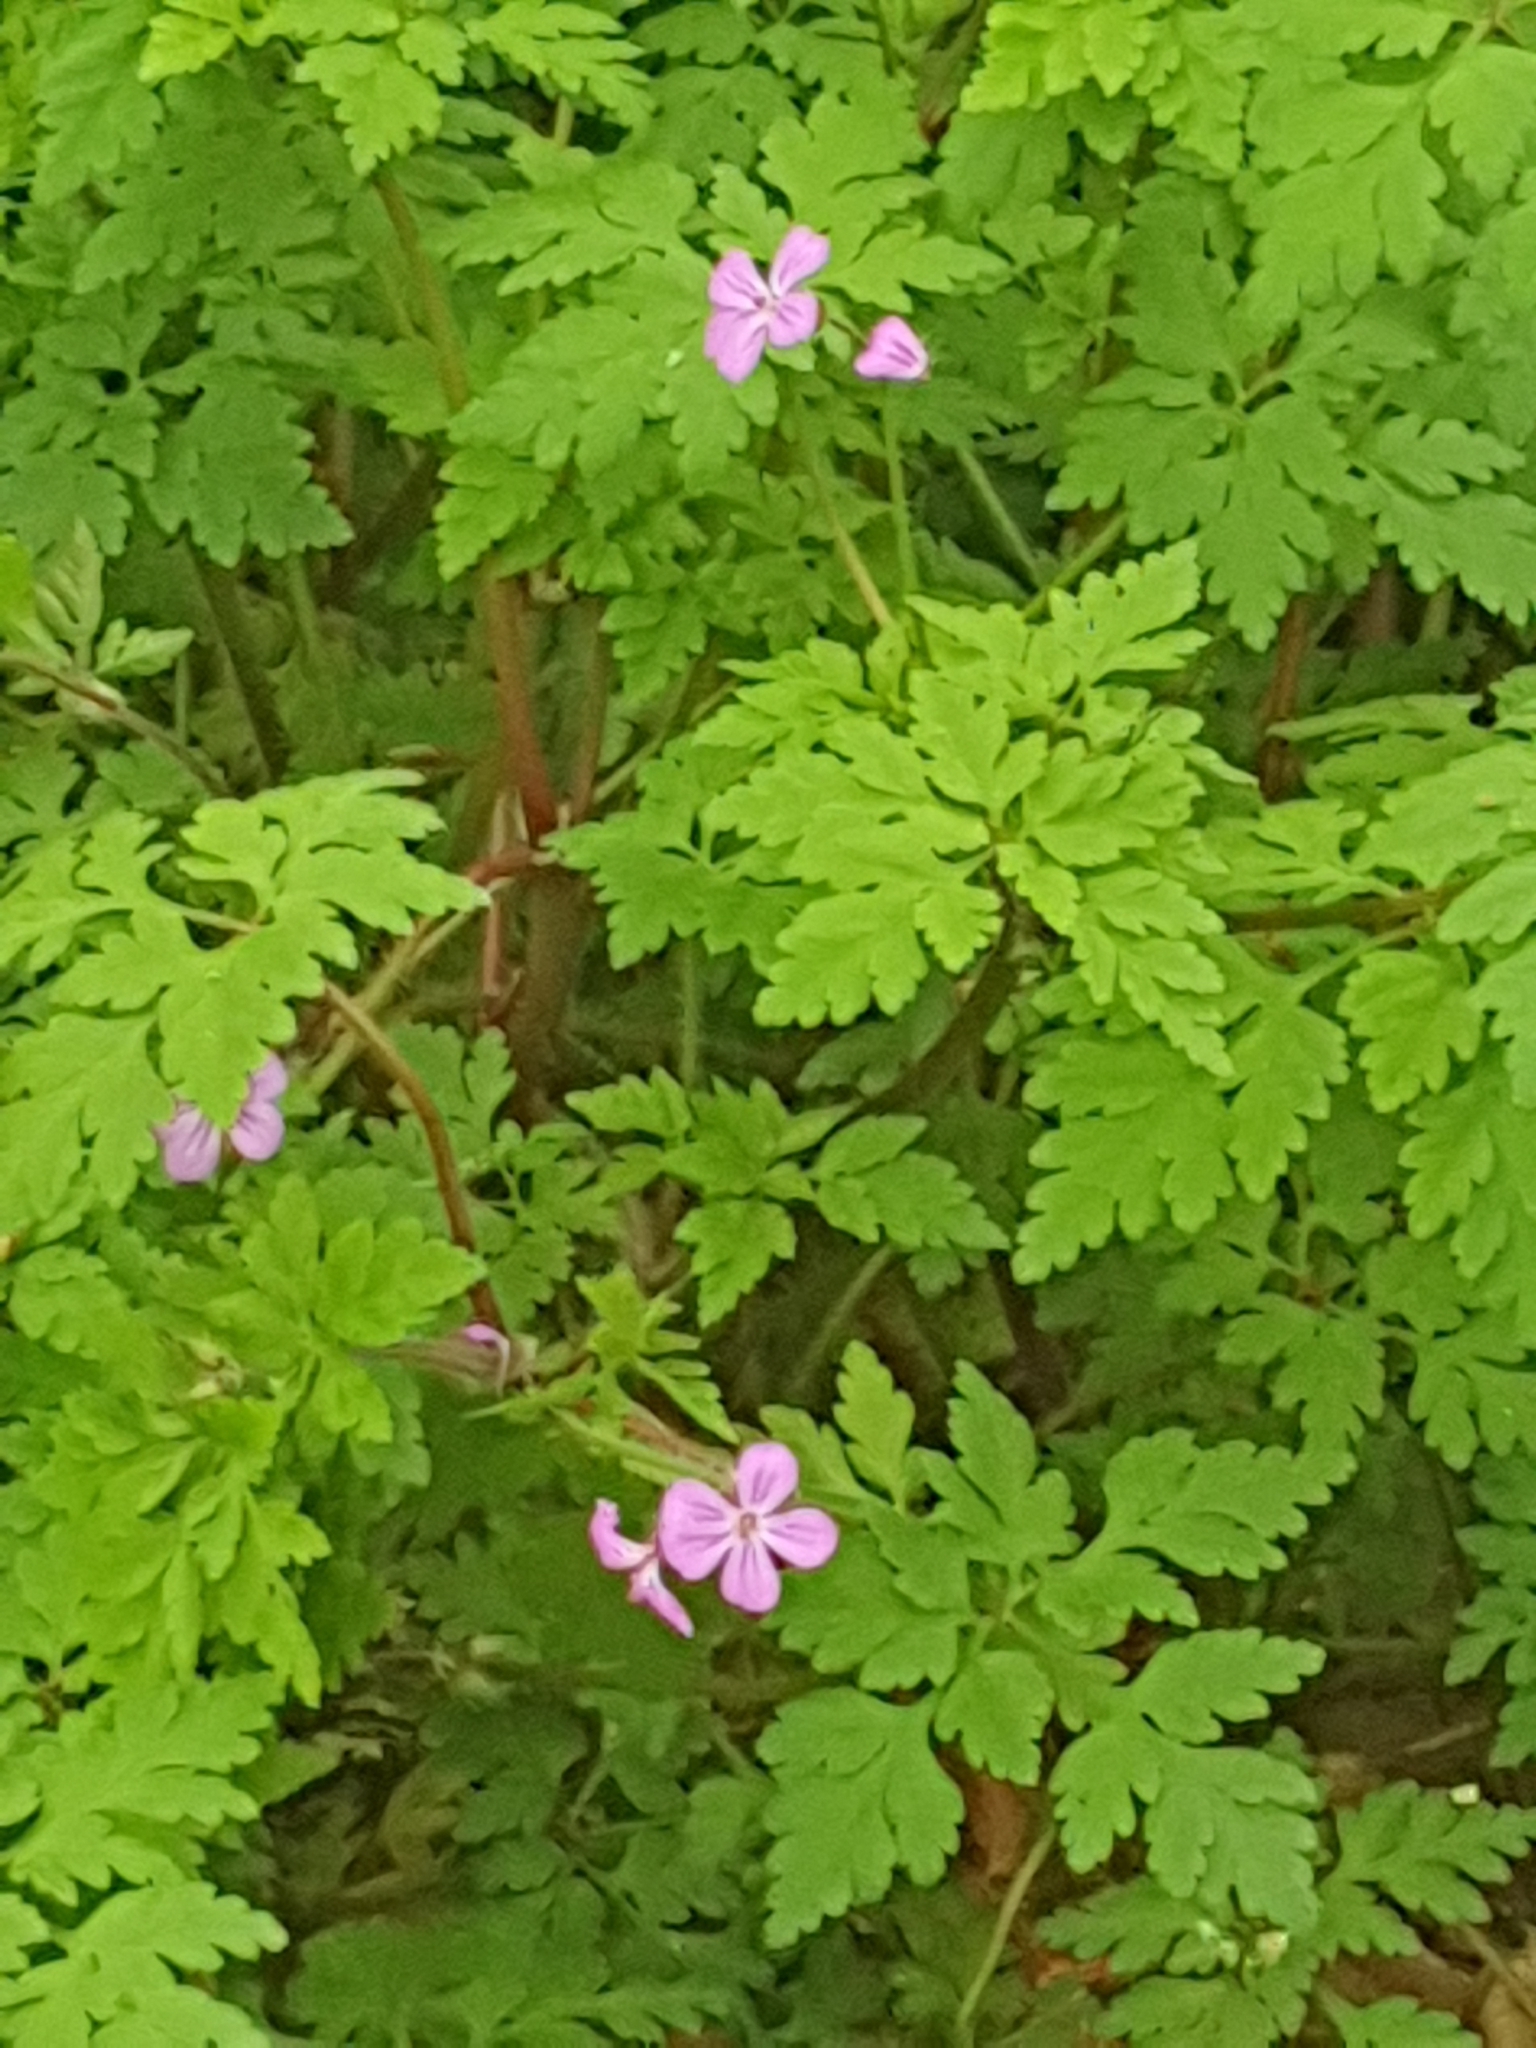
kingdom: Plantae
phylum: Tracheophyta
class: Magnoliopsida
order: Geraniales
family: Geraniaceae
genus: Geranium
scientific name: Geranium robertianum
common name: Herb-robert
